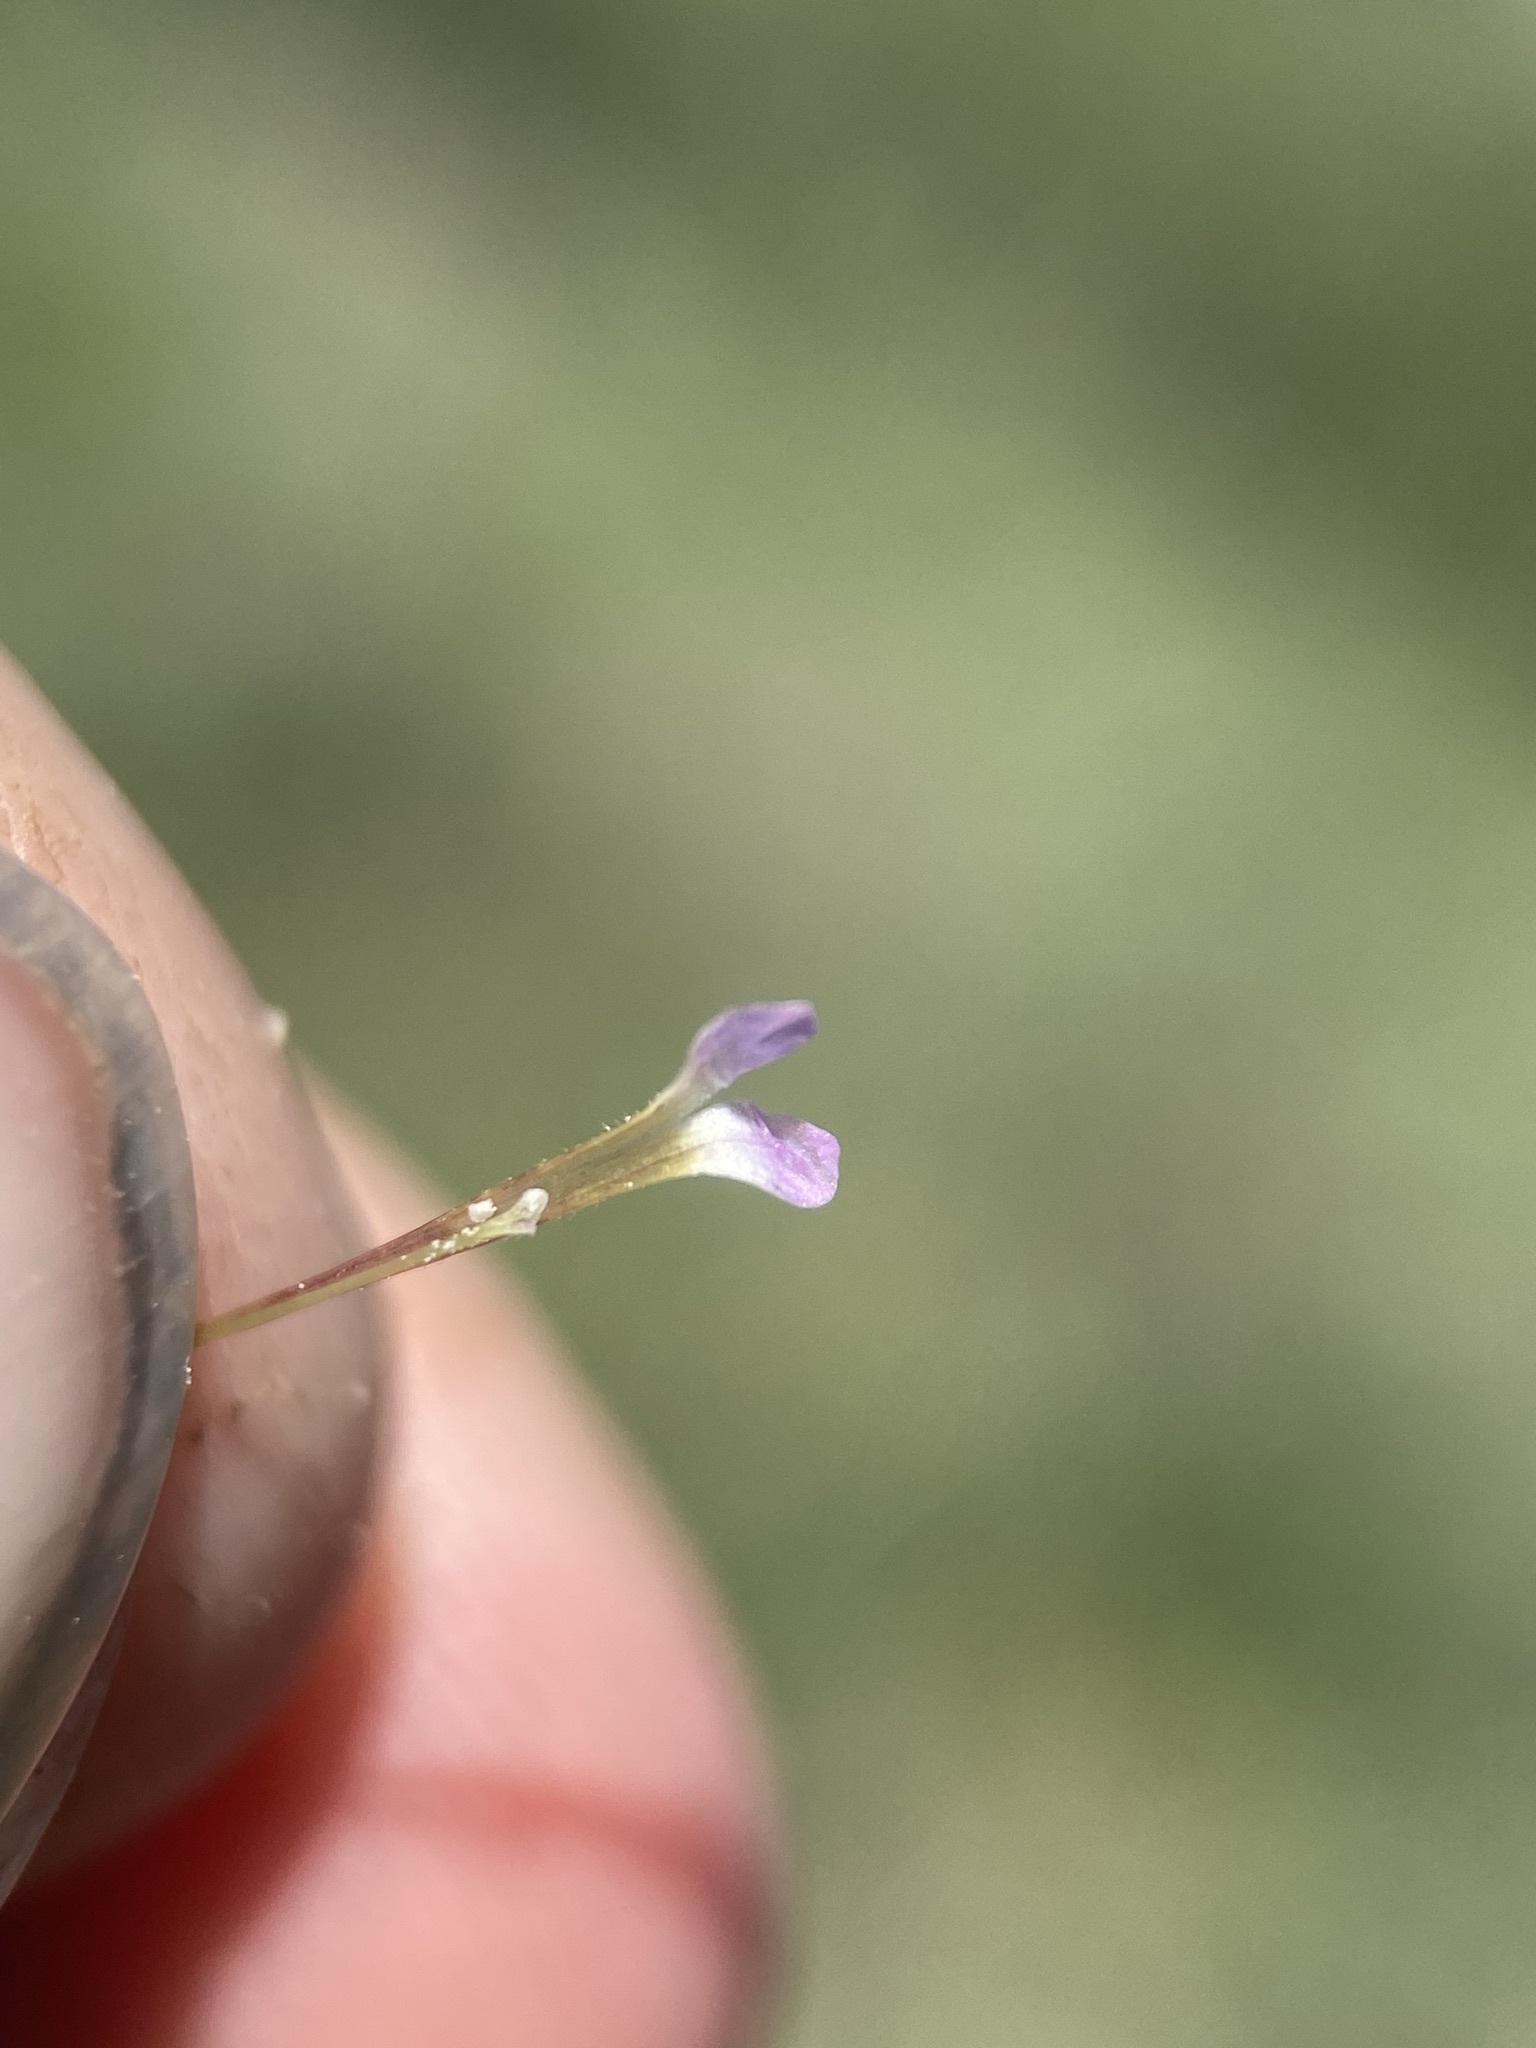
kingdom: Plantae
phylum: Tracheophyta
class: Magnoliopsida
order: Ericales
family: Polemoniaceae
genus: Collomia
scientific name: Collomia linearis
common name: Tiny trumpet
